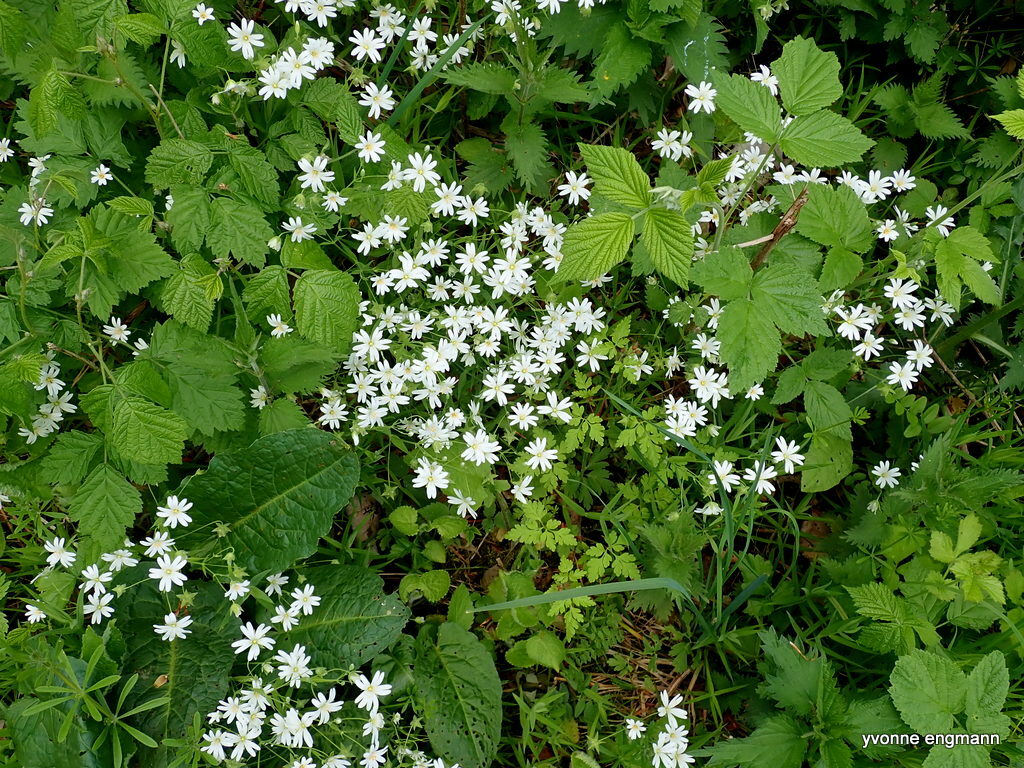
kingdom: Plantae
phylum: Tracheophyta
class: Magnoliopsida
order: Caryophyllales
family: Caryophyllaceae
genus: Rabelera
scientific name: Rabelera holostea
